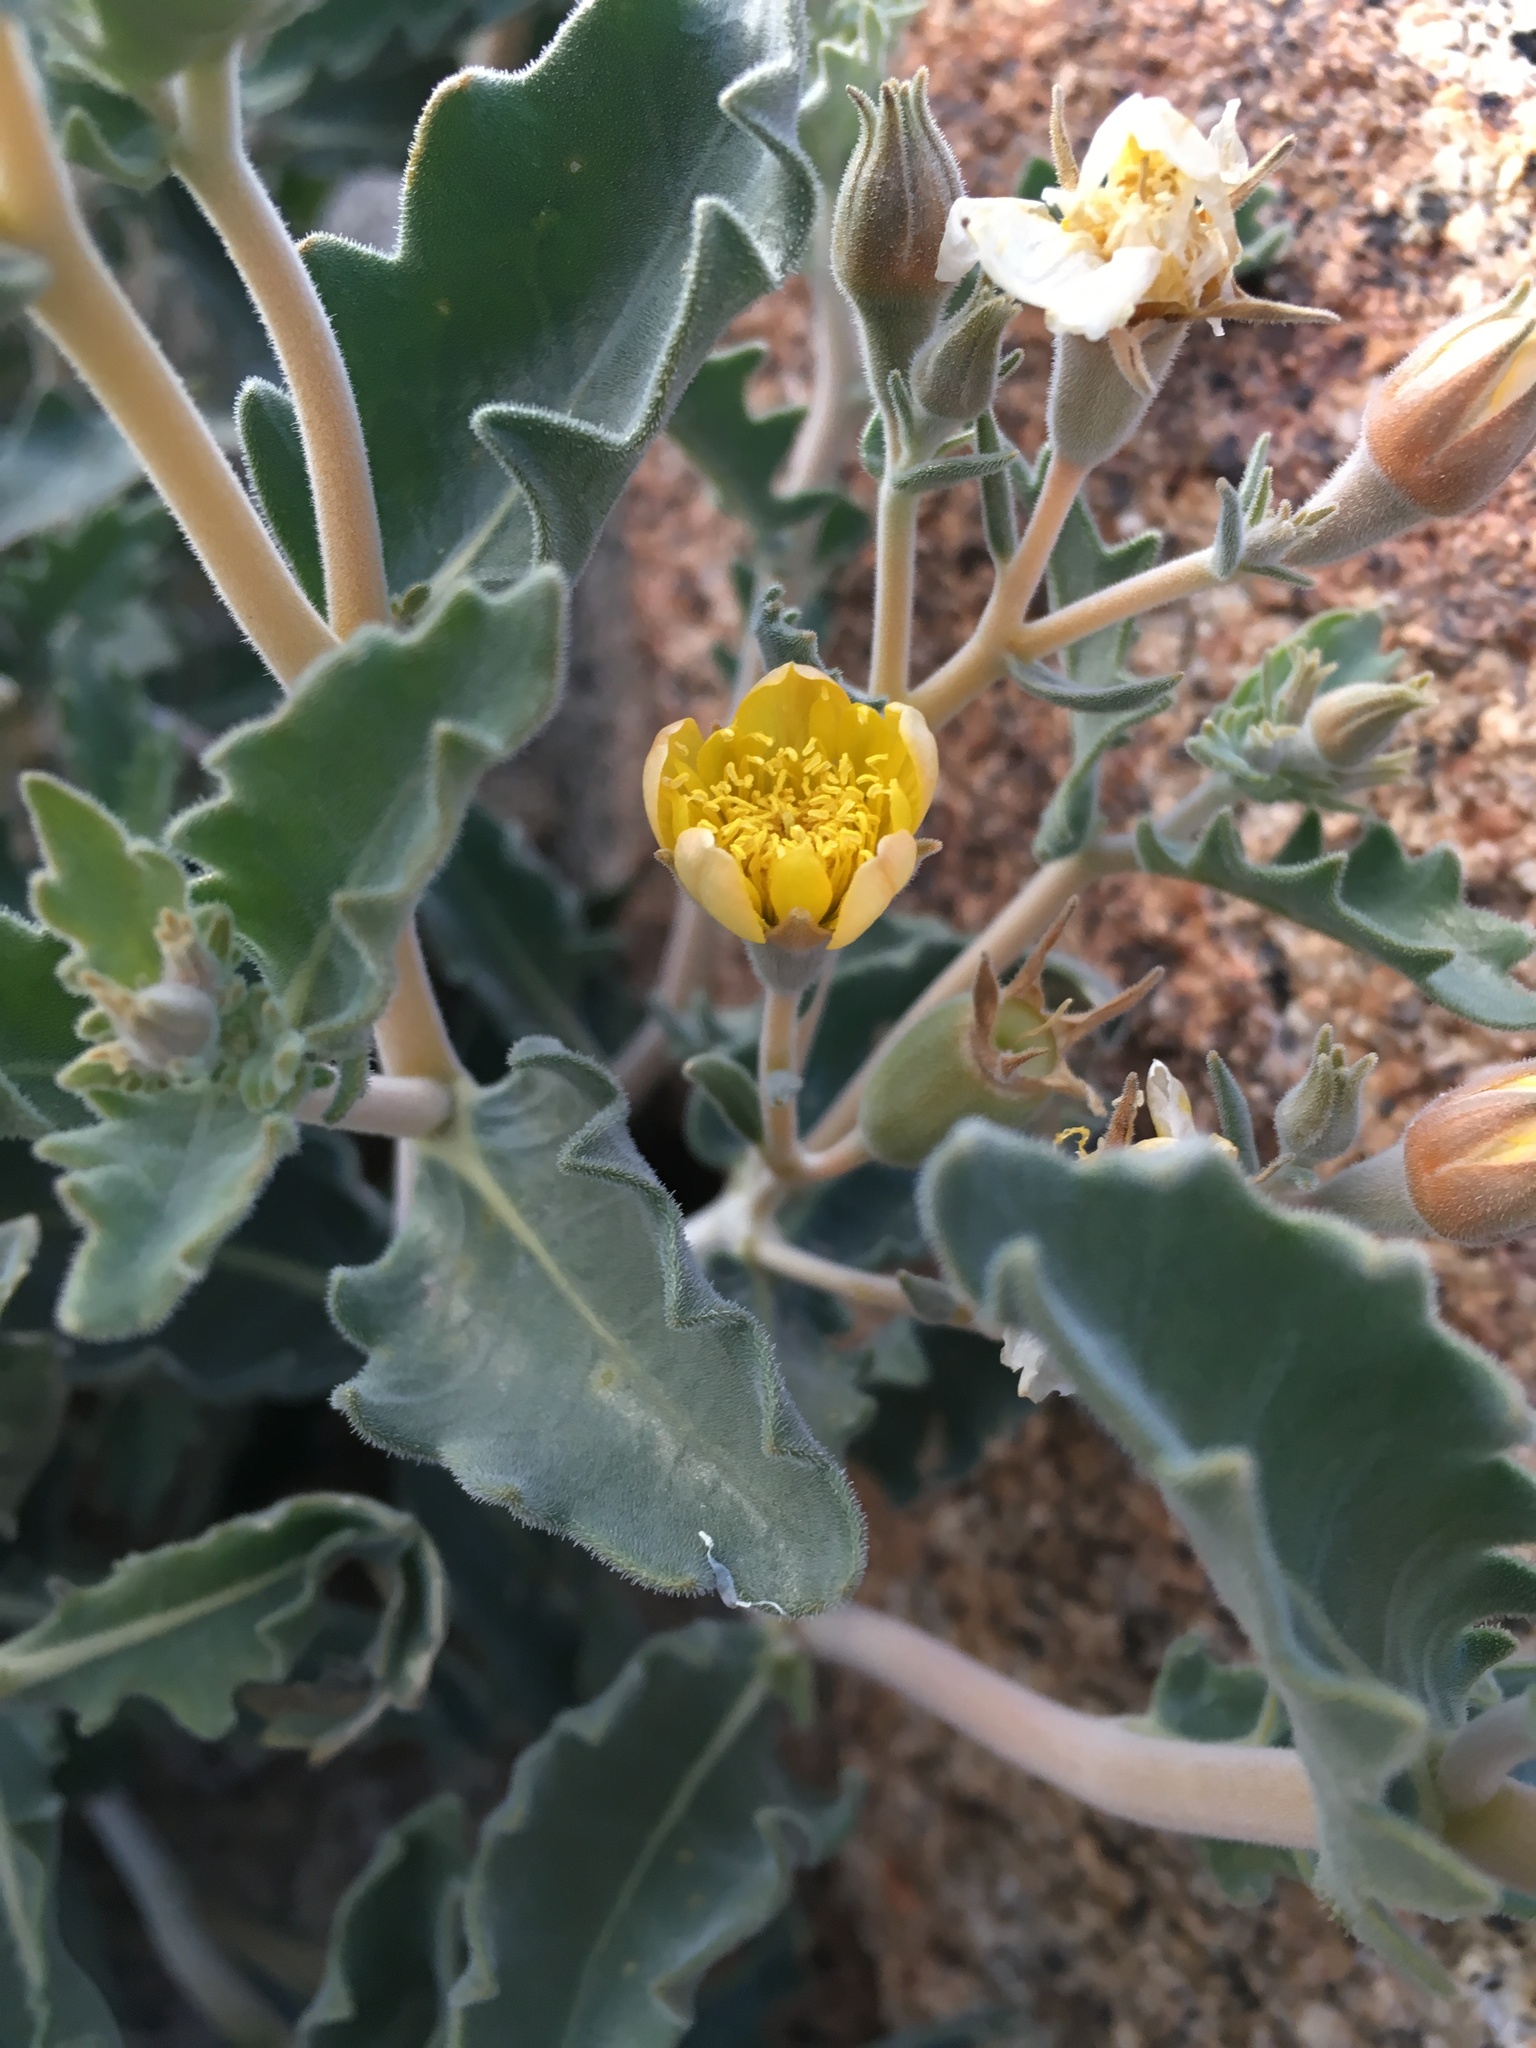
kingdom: Plantae
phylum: Tracheophyta
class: Magnoliopsida
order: Cornales
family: Loasaceae
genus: Mentzelia
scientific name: Mentzelia puberula
